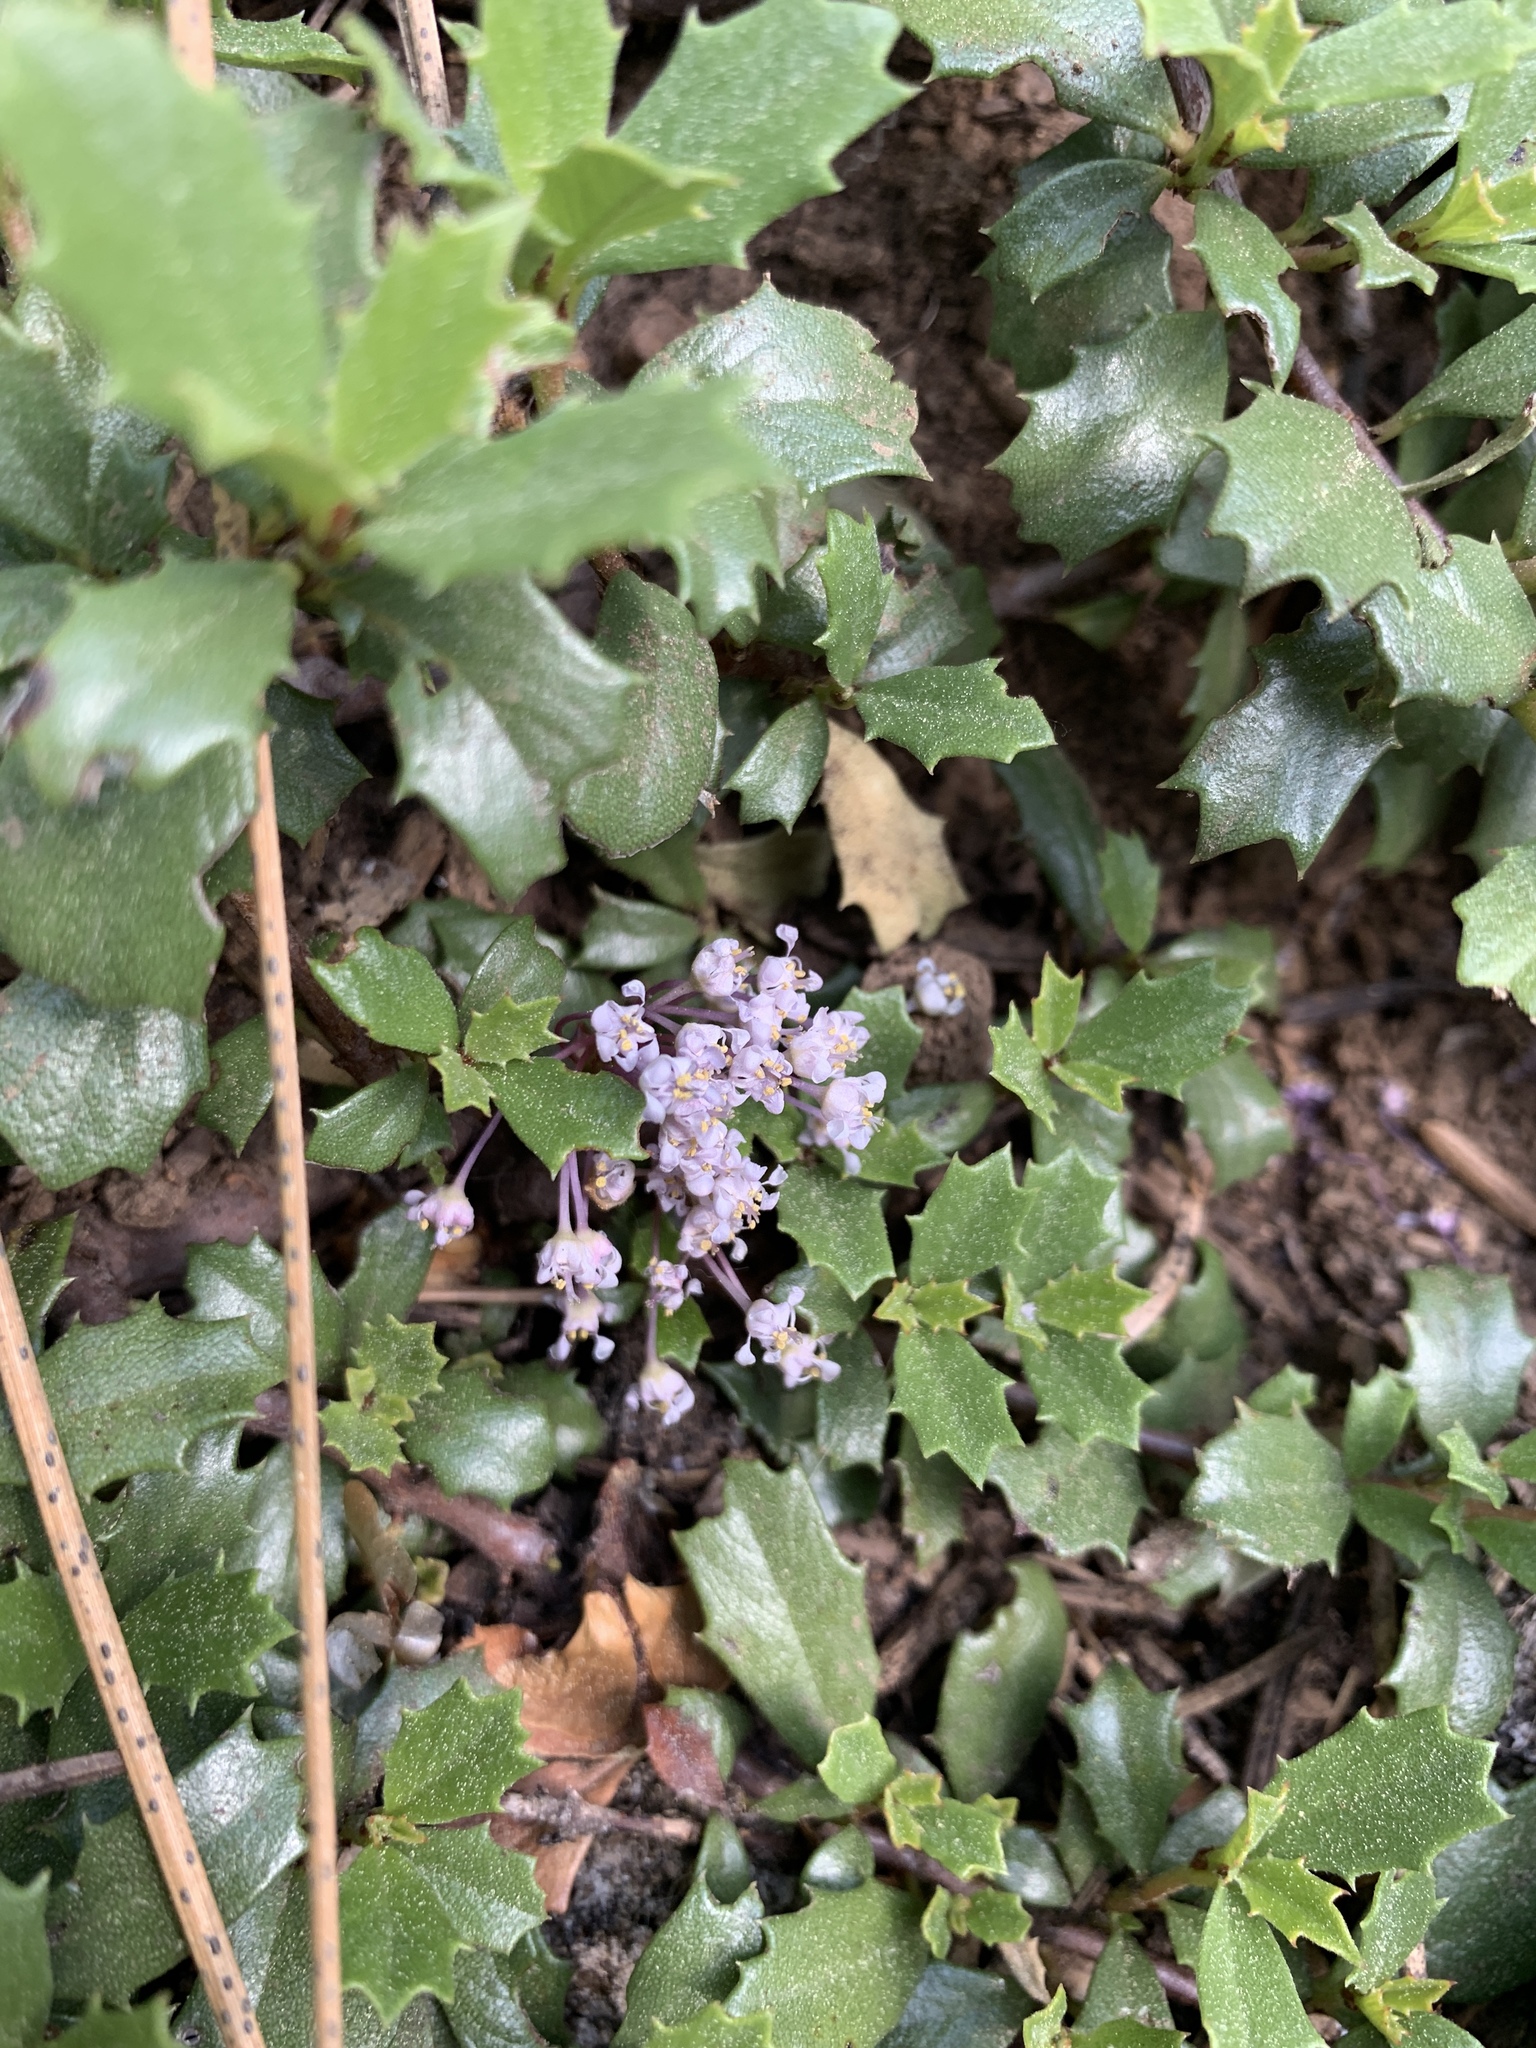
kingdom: Plantae
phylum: Tracheophyta
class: Magnoliopsida
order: Rosales
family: Rhamnaceae
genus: Ceanothus
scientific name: Ceanothus prostratus
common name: Mahala-mat
